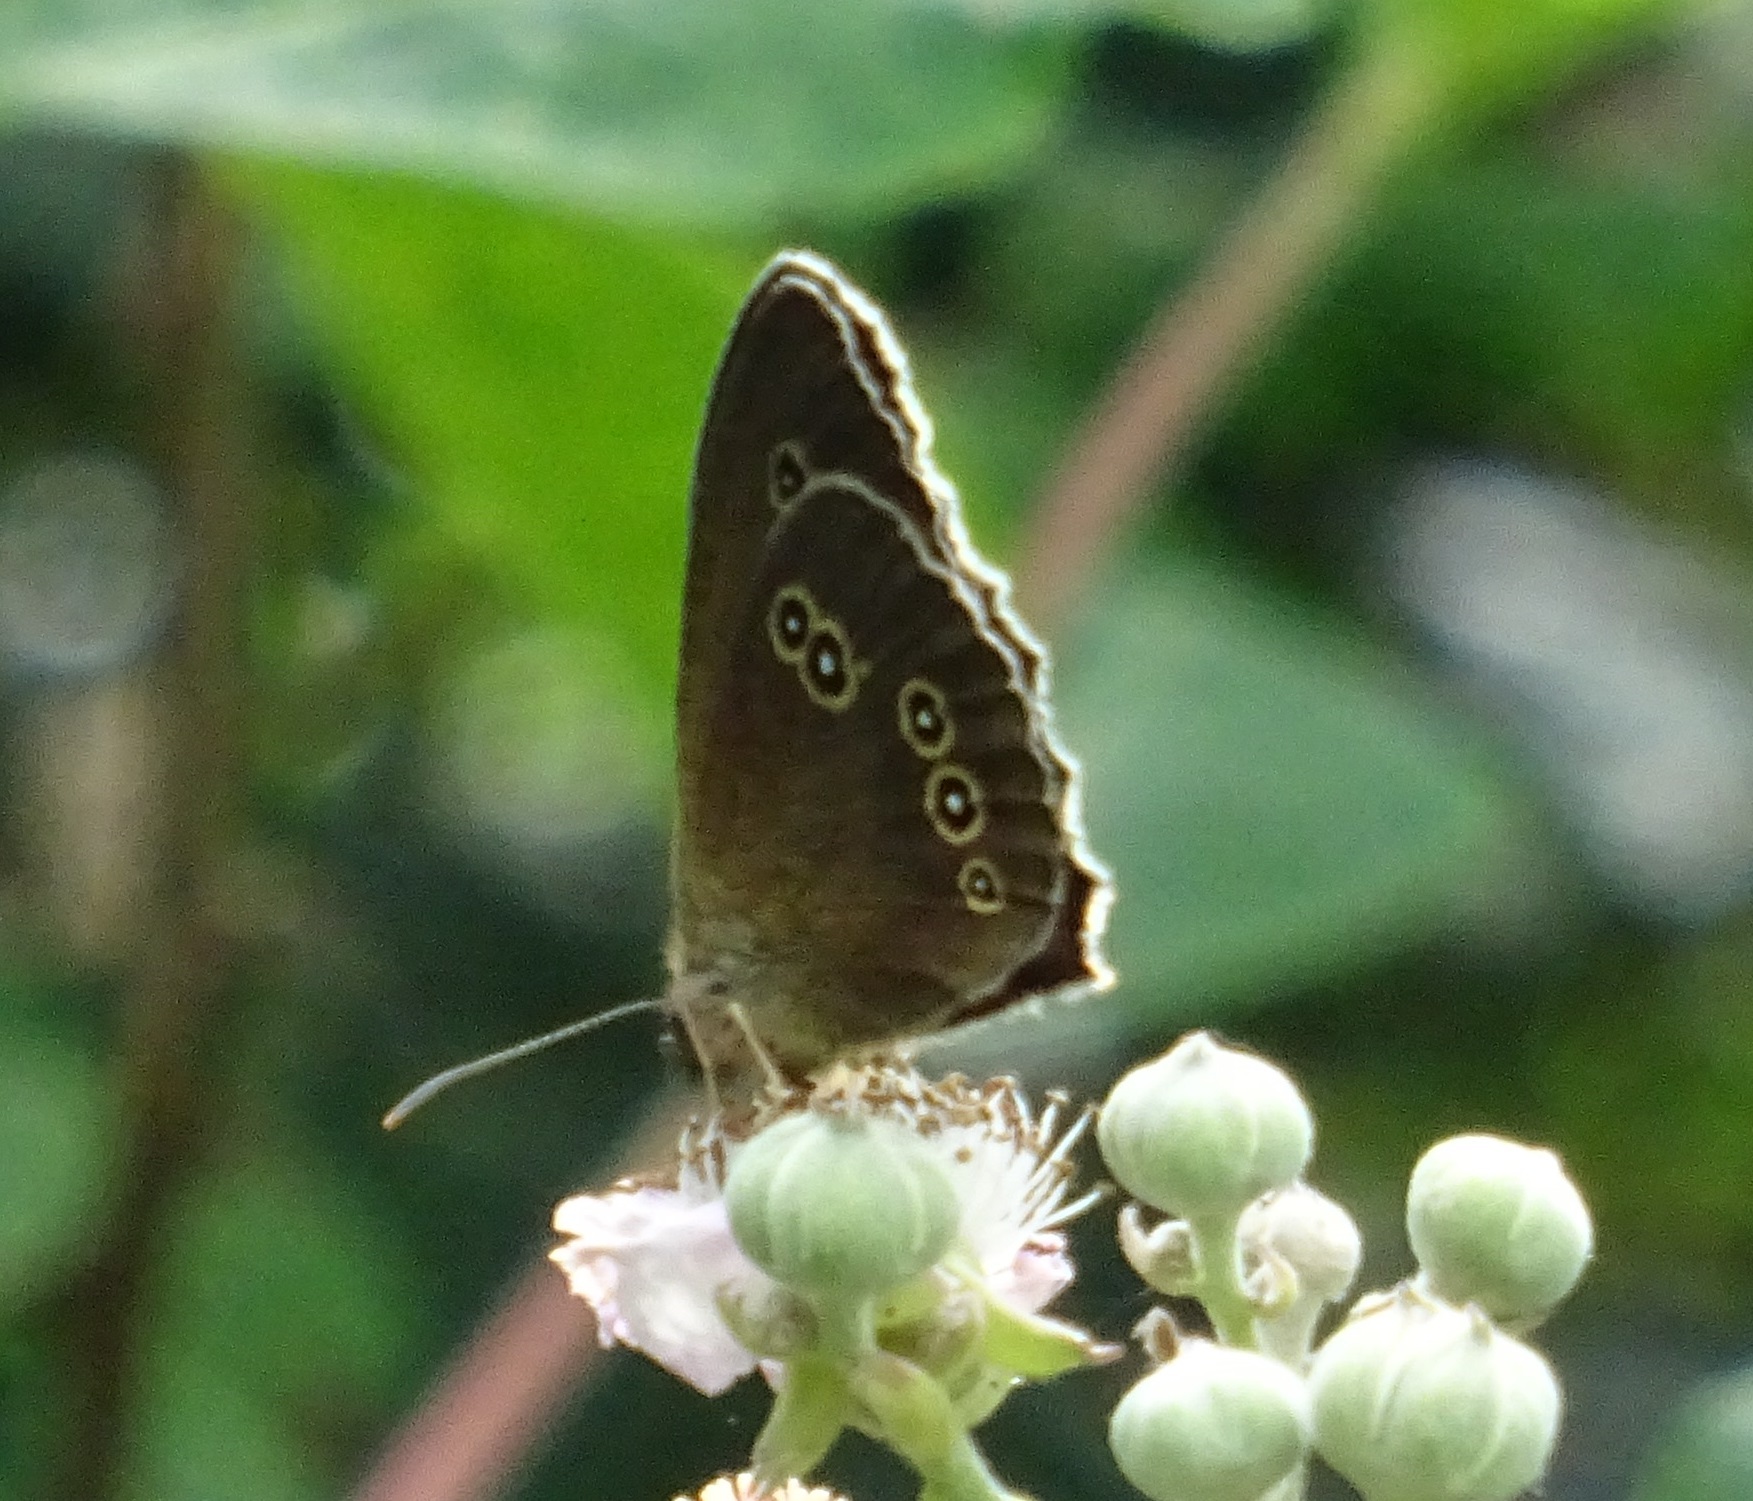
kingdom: Animalia
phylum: Arthropoda
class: Insecta
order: Lepidoptera
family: Nymphalidae
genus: Aphantopus
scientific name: Aphantopus hyperantus
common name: Ringlet
